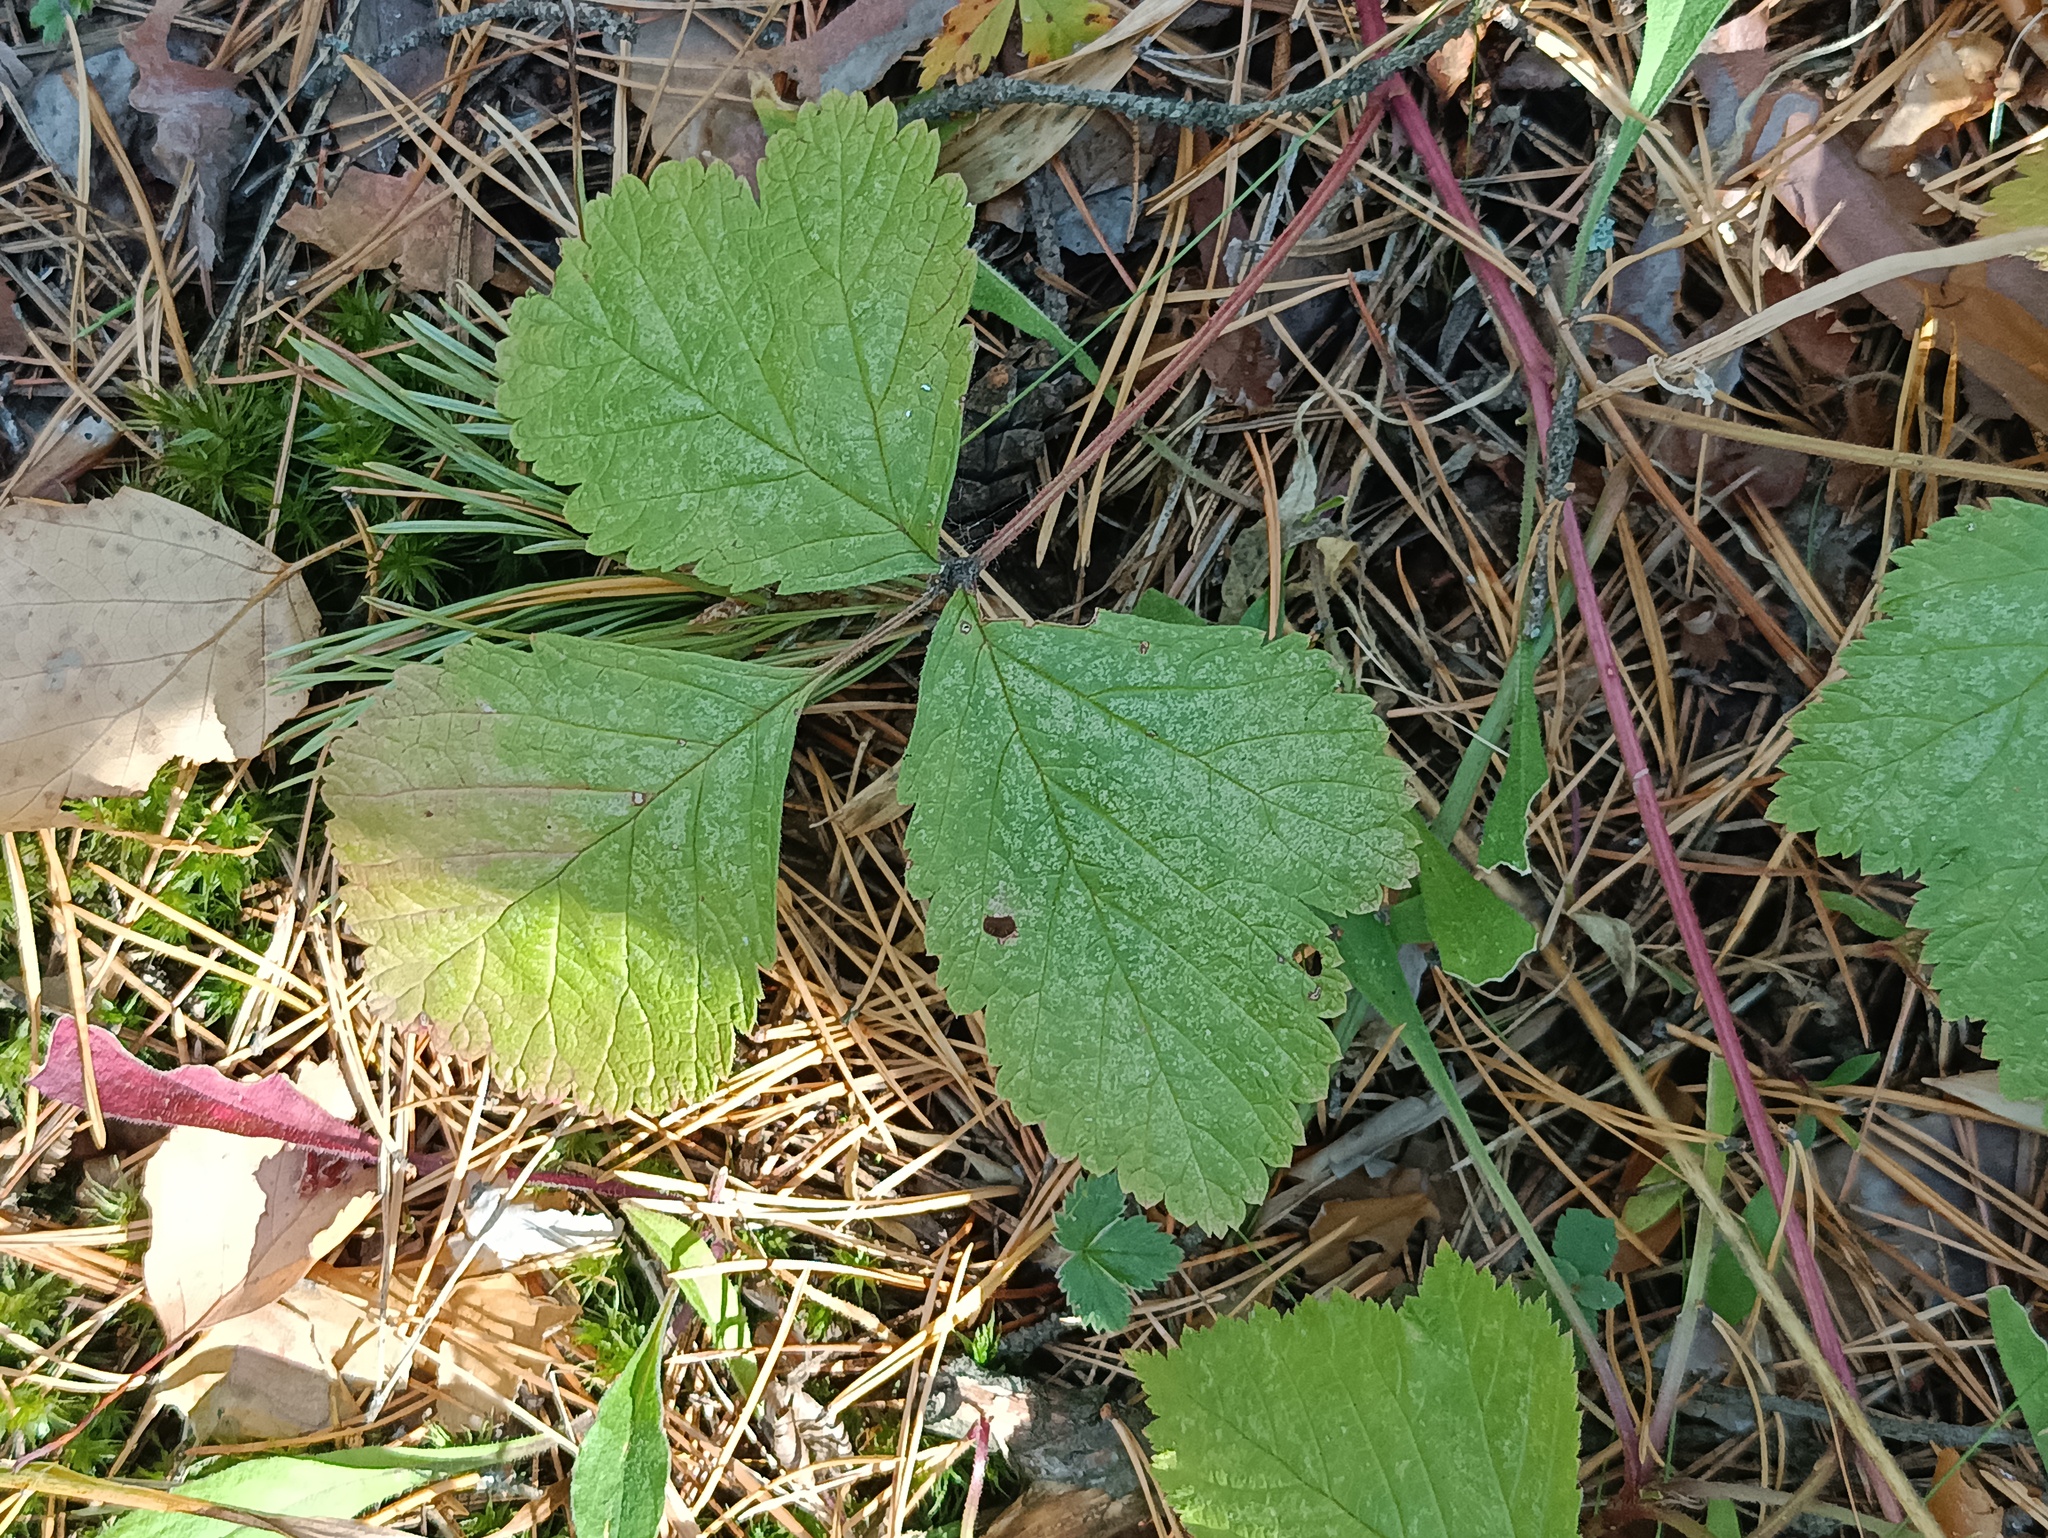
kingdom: Plantae
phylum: Tracheophyta
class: Magnoliopsida
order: Rosales
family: Rosaceae
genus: Rubus
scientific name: Rubus saxatilis
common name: Stone bramble
